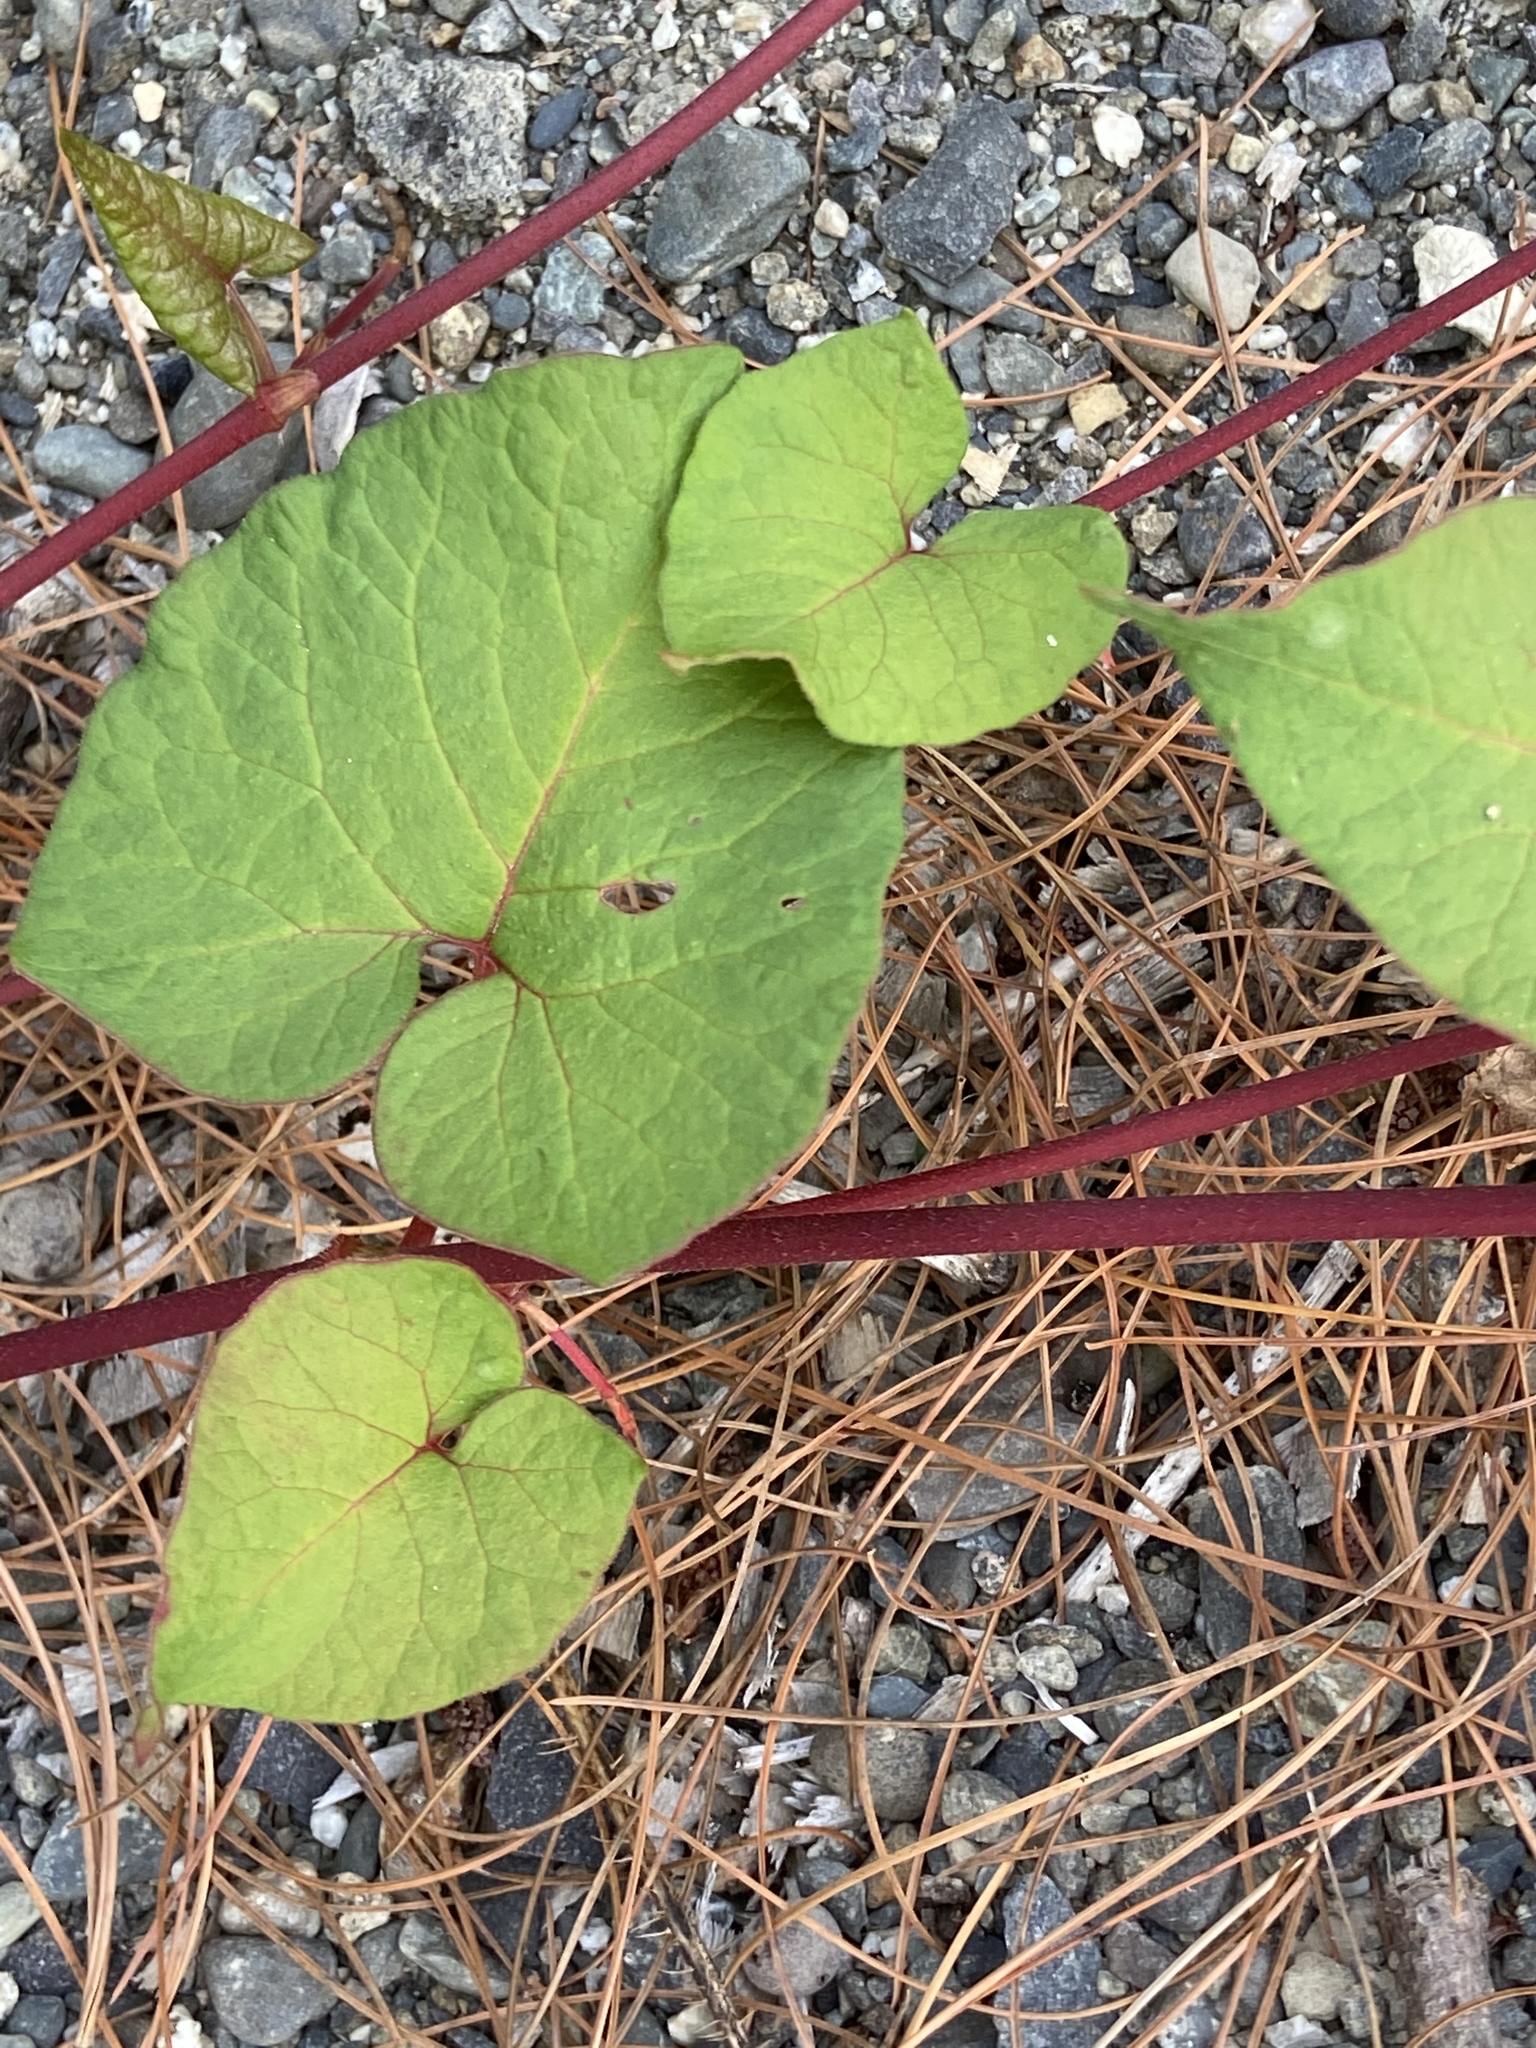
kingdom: Plantae
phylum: Tracheophyta
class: Magnoliopsida
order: Caryophyllales
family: Polygonaceae
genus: Fallopia
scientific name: Fallopia scandens
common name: Climbing false buckwheat
